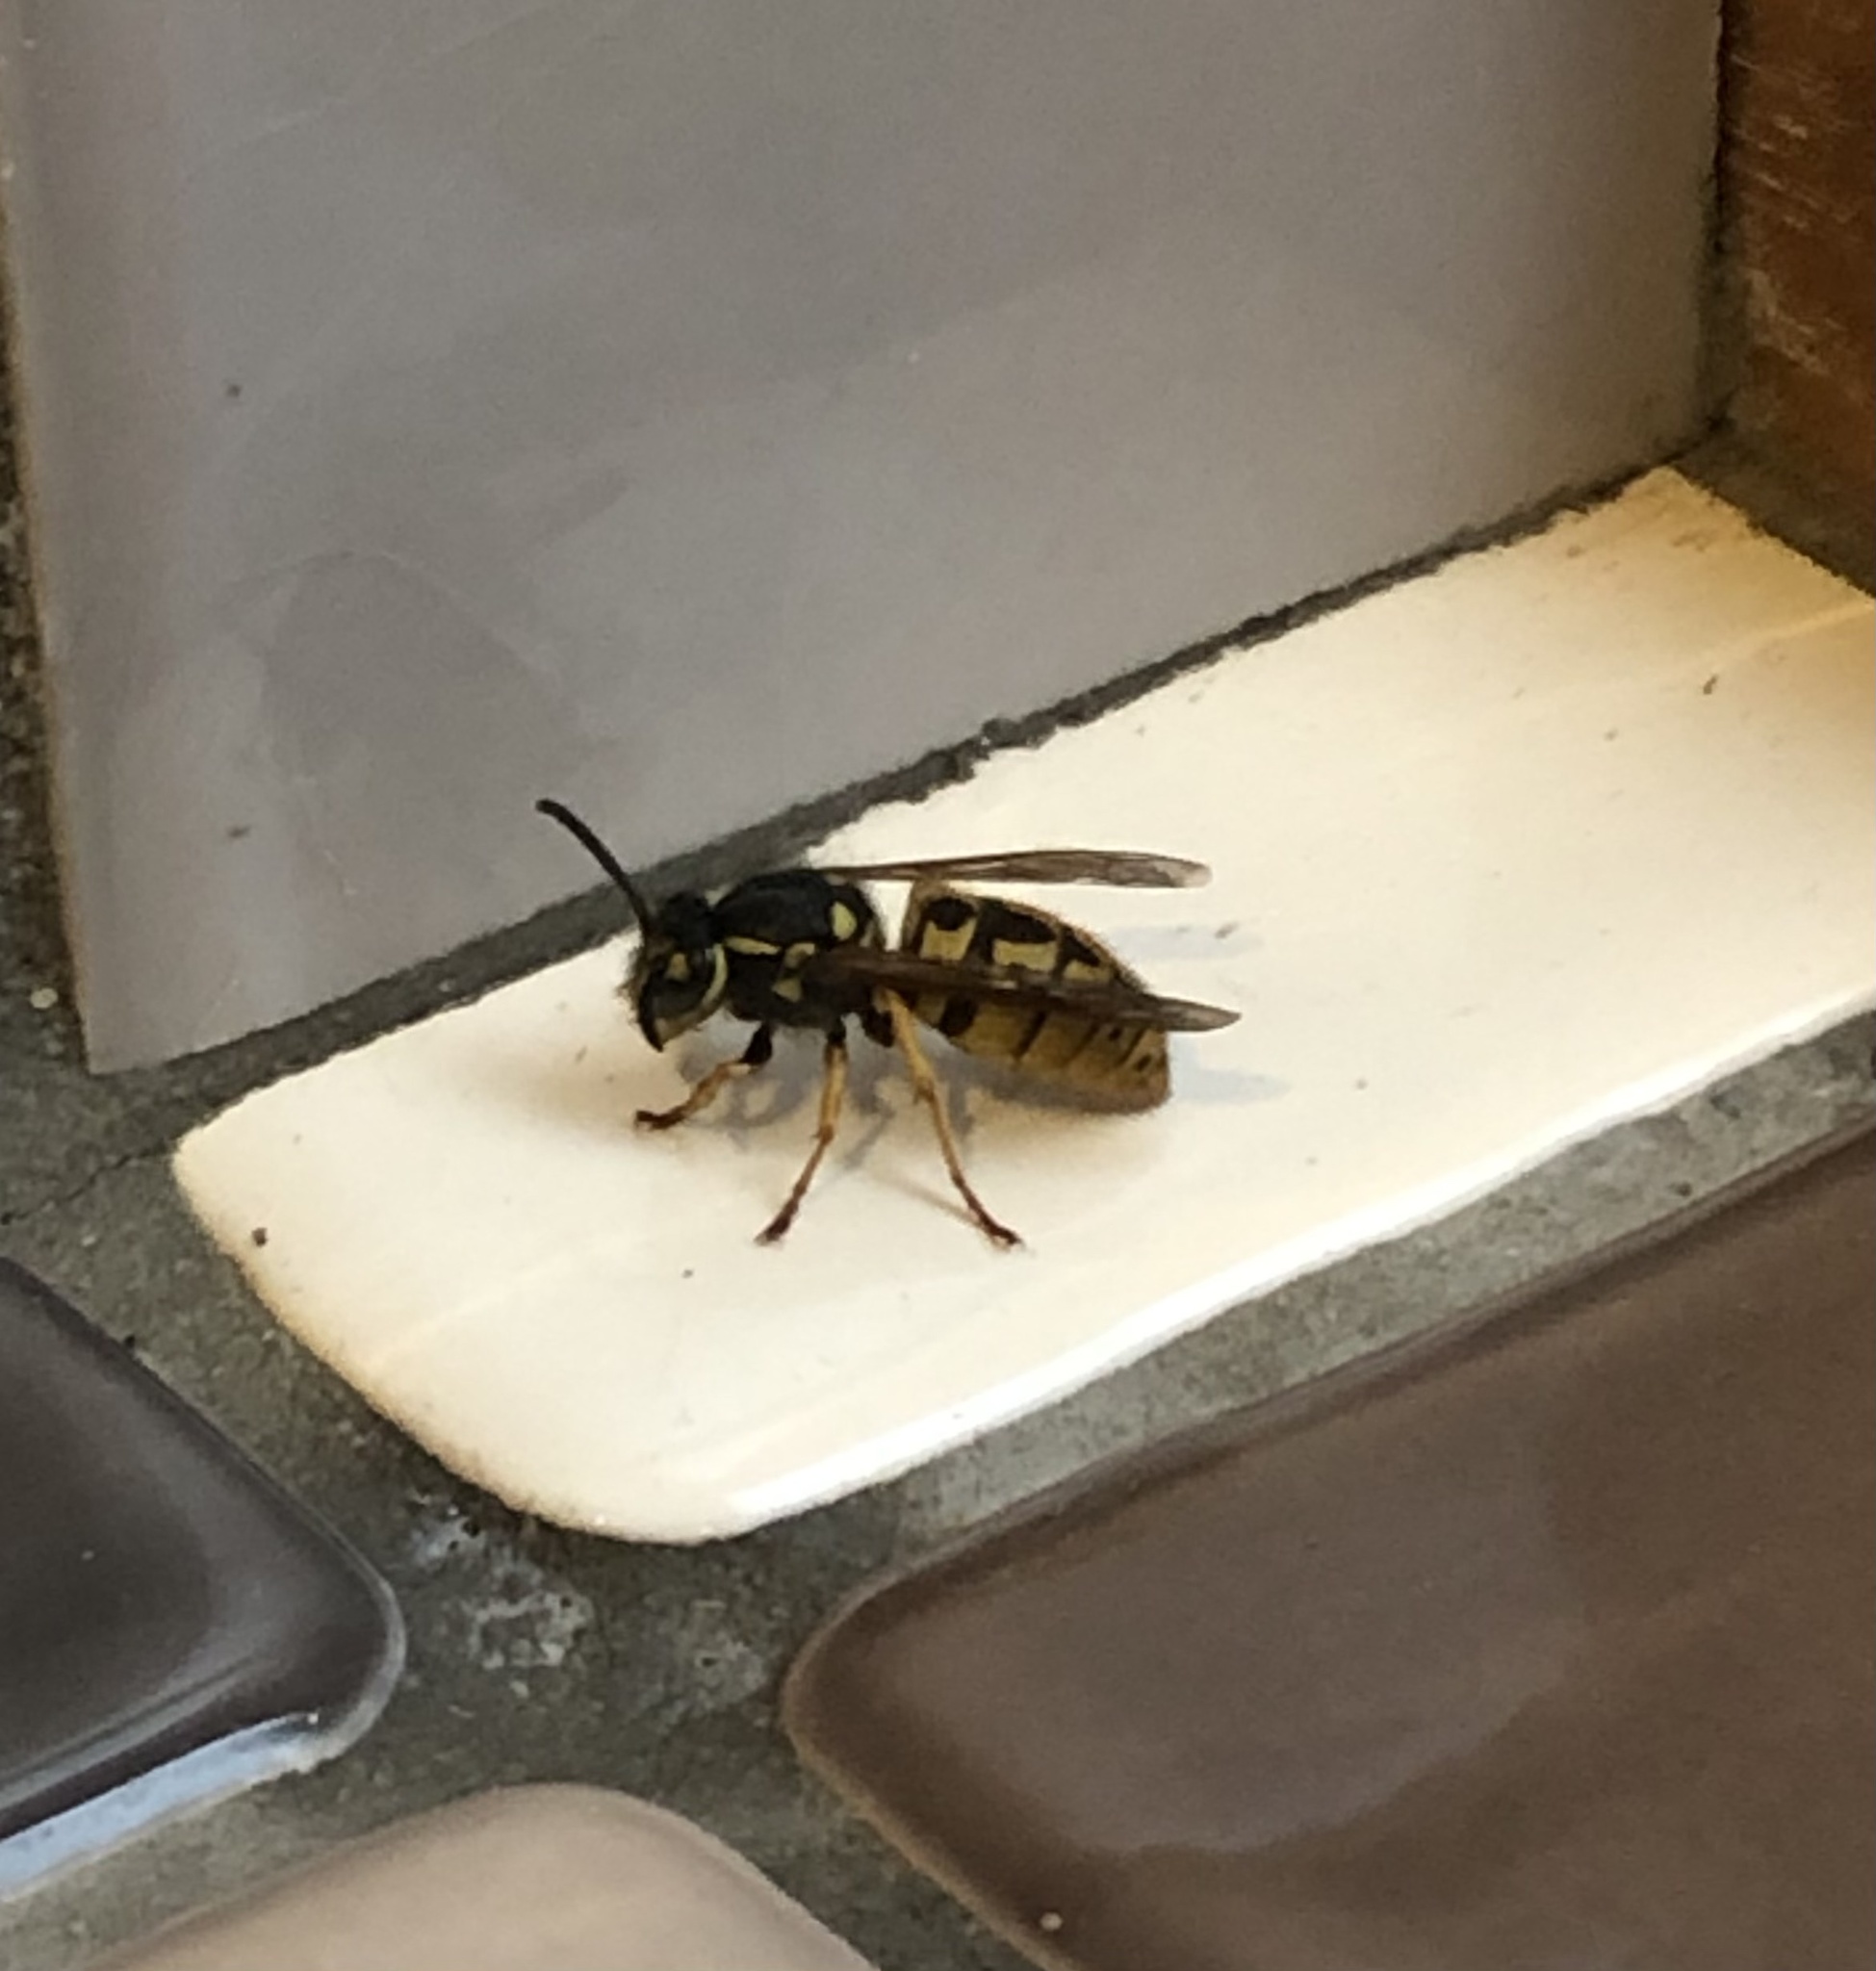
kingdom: Animalia
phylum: Arthropoda
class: Insecta
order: Hymenoptera
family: Vespidae
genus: Vespula
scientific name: Vespula germanica
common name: German wasp
